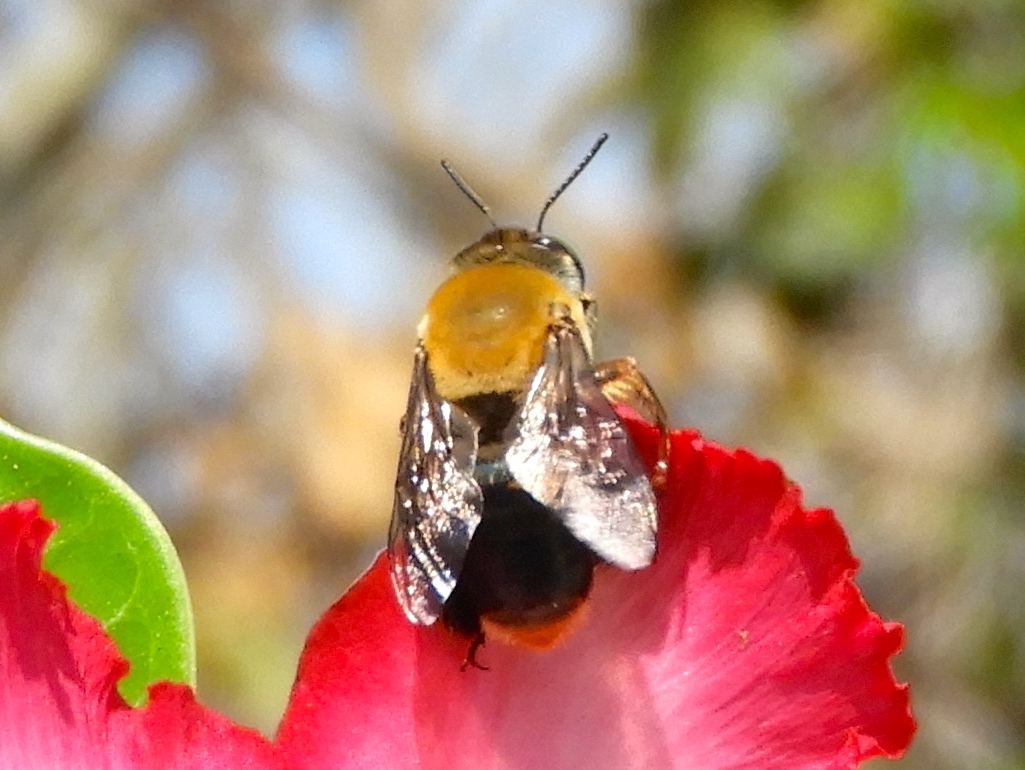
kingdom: Animalia
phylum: Arthropoda
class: Insecta
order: Hymenoptera
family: Apidae
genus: Centris
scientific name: Centris varia
